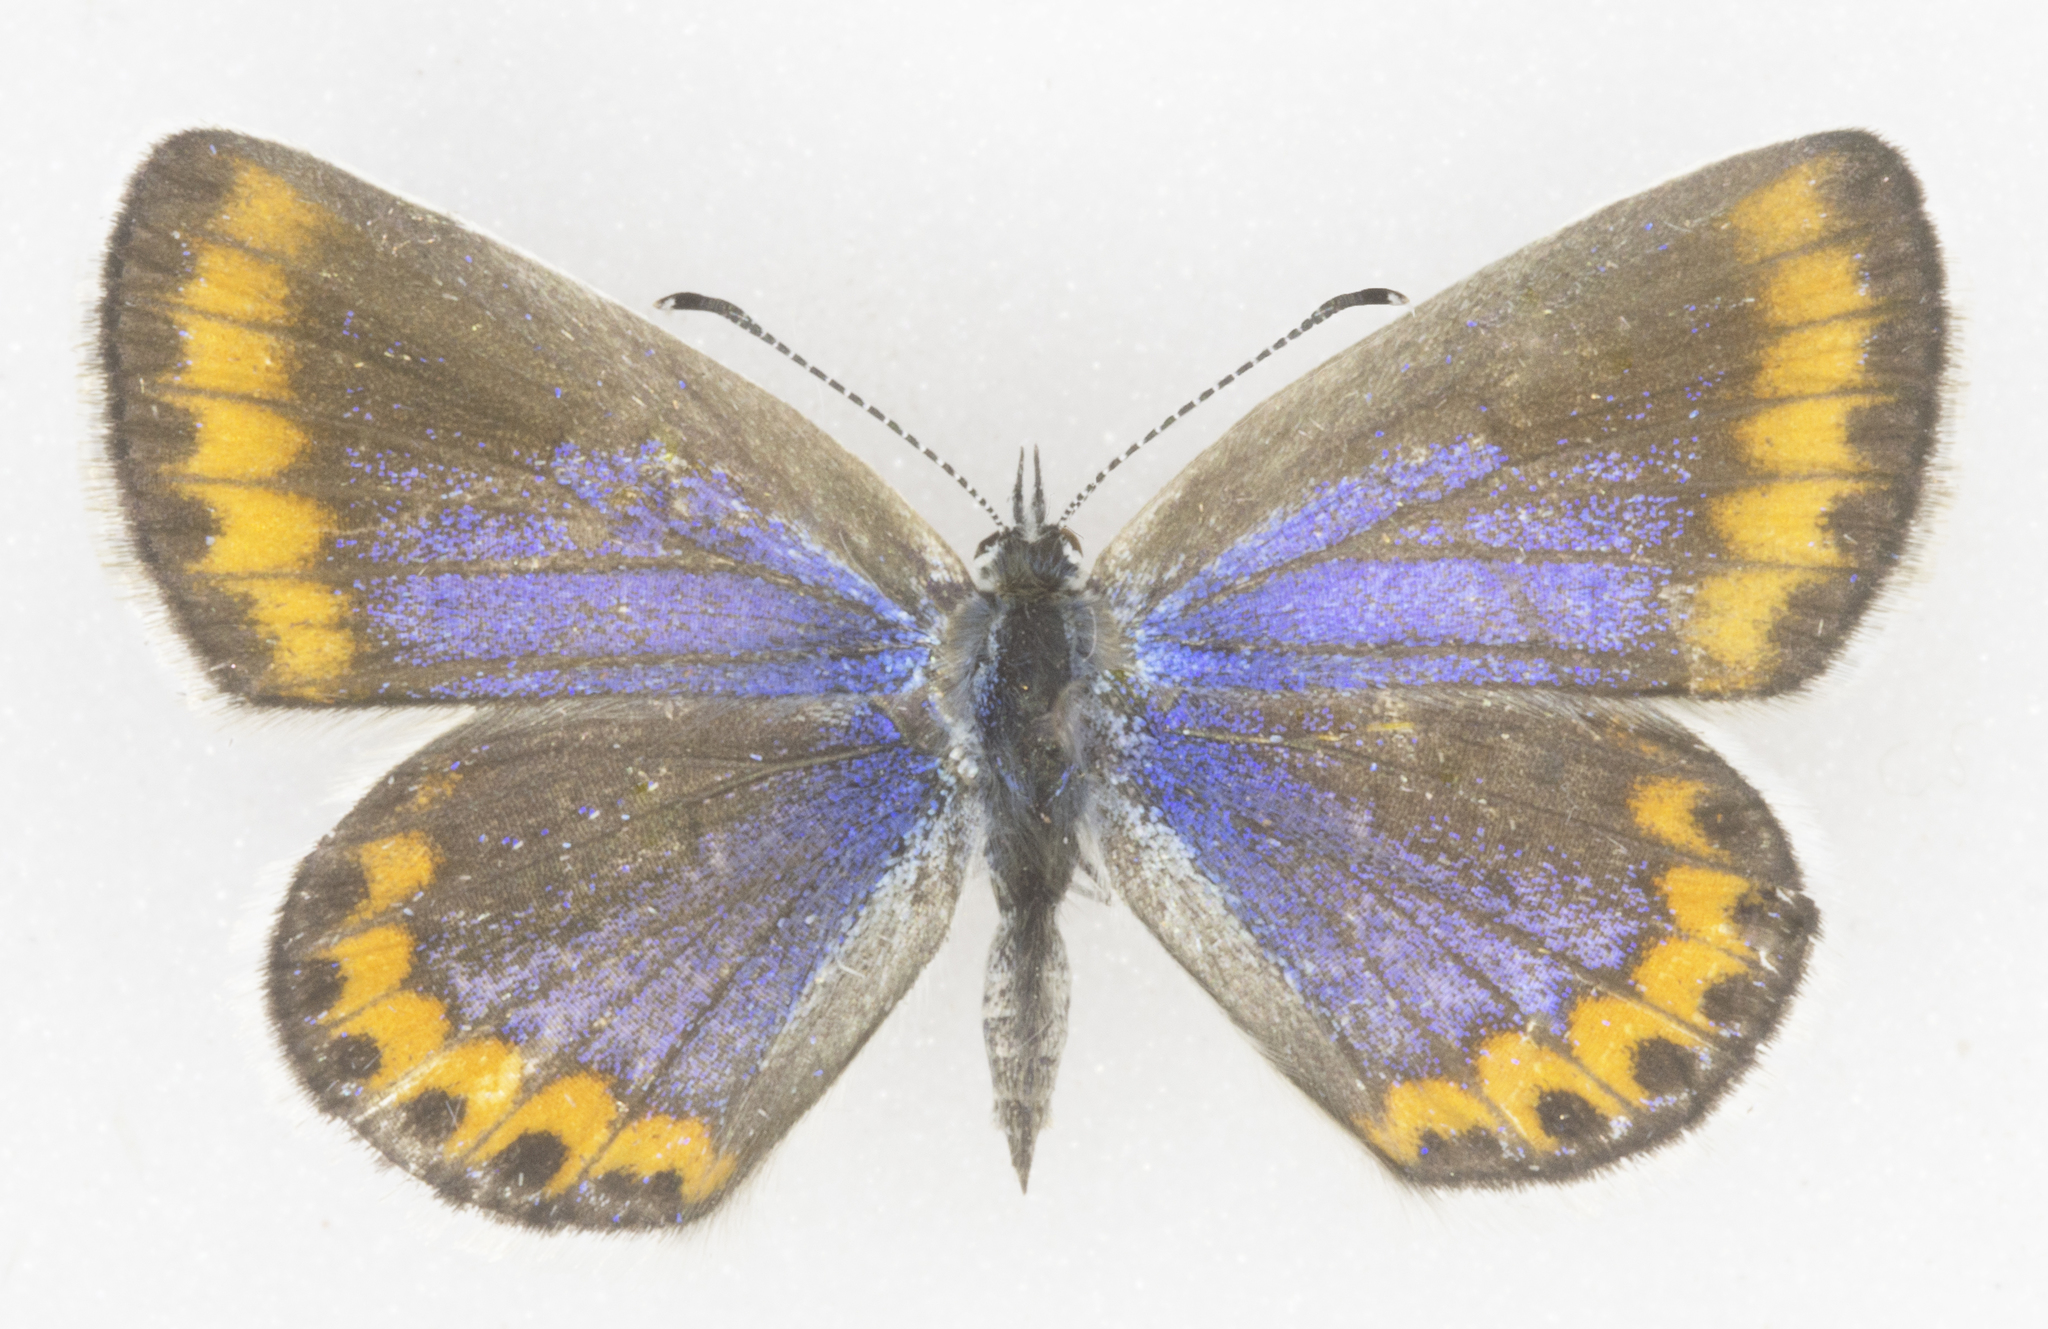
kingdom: Animalia
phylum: Arthropoda
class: Insecta
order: Lepidoptera
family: Lycaenidae
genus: Lycaeides
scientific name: Lycaeides melissa
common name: Melissa blue
